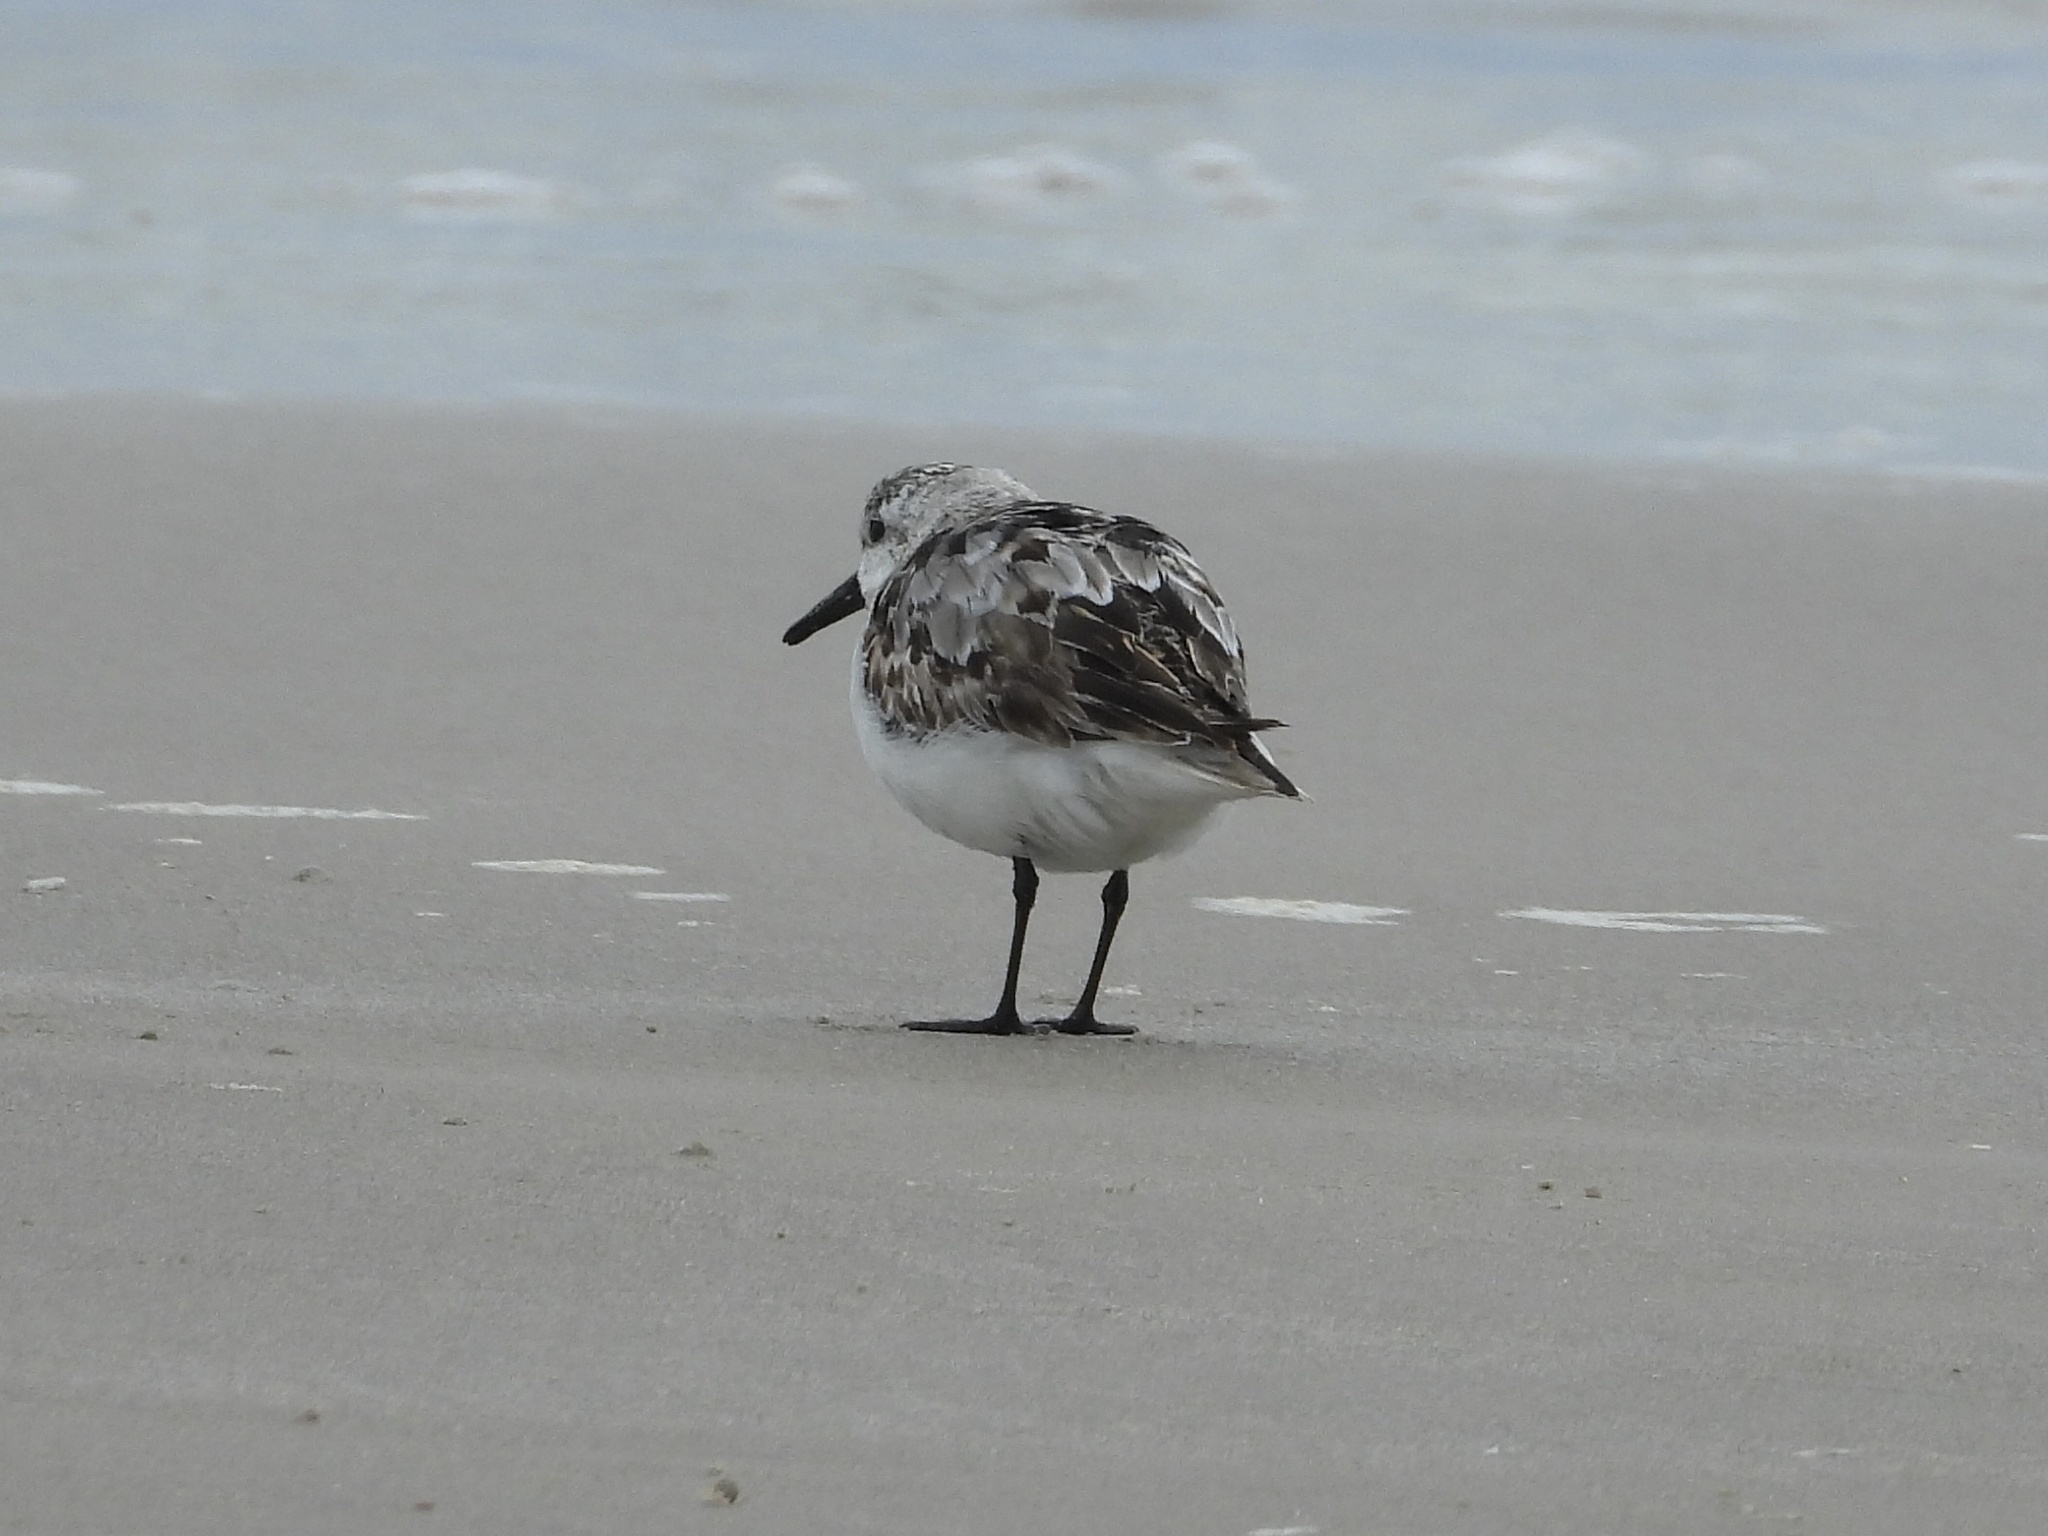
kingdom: Animalia
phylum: Chordata
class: Aves
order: Charadriiformes
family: Scolopacidae
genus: Calidris
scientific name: Calidris alba
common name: Sanderling
